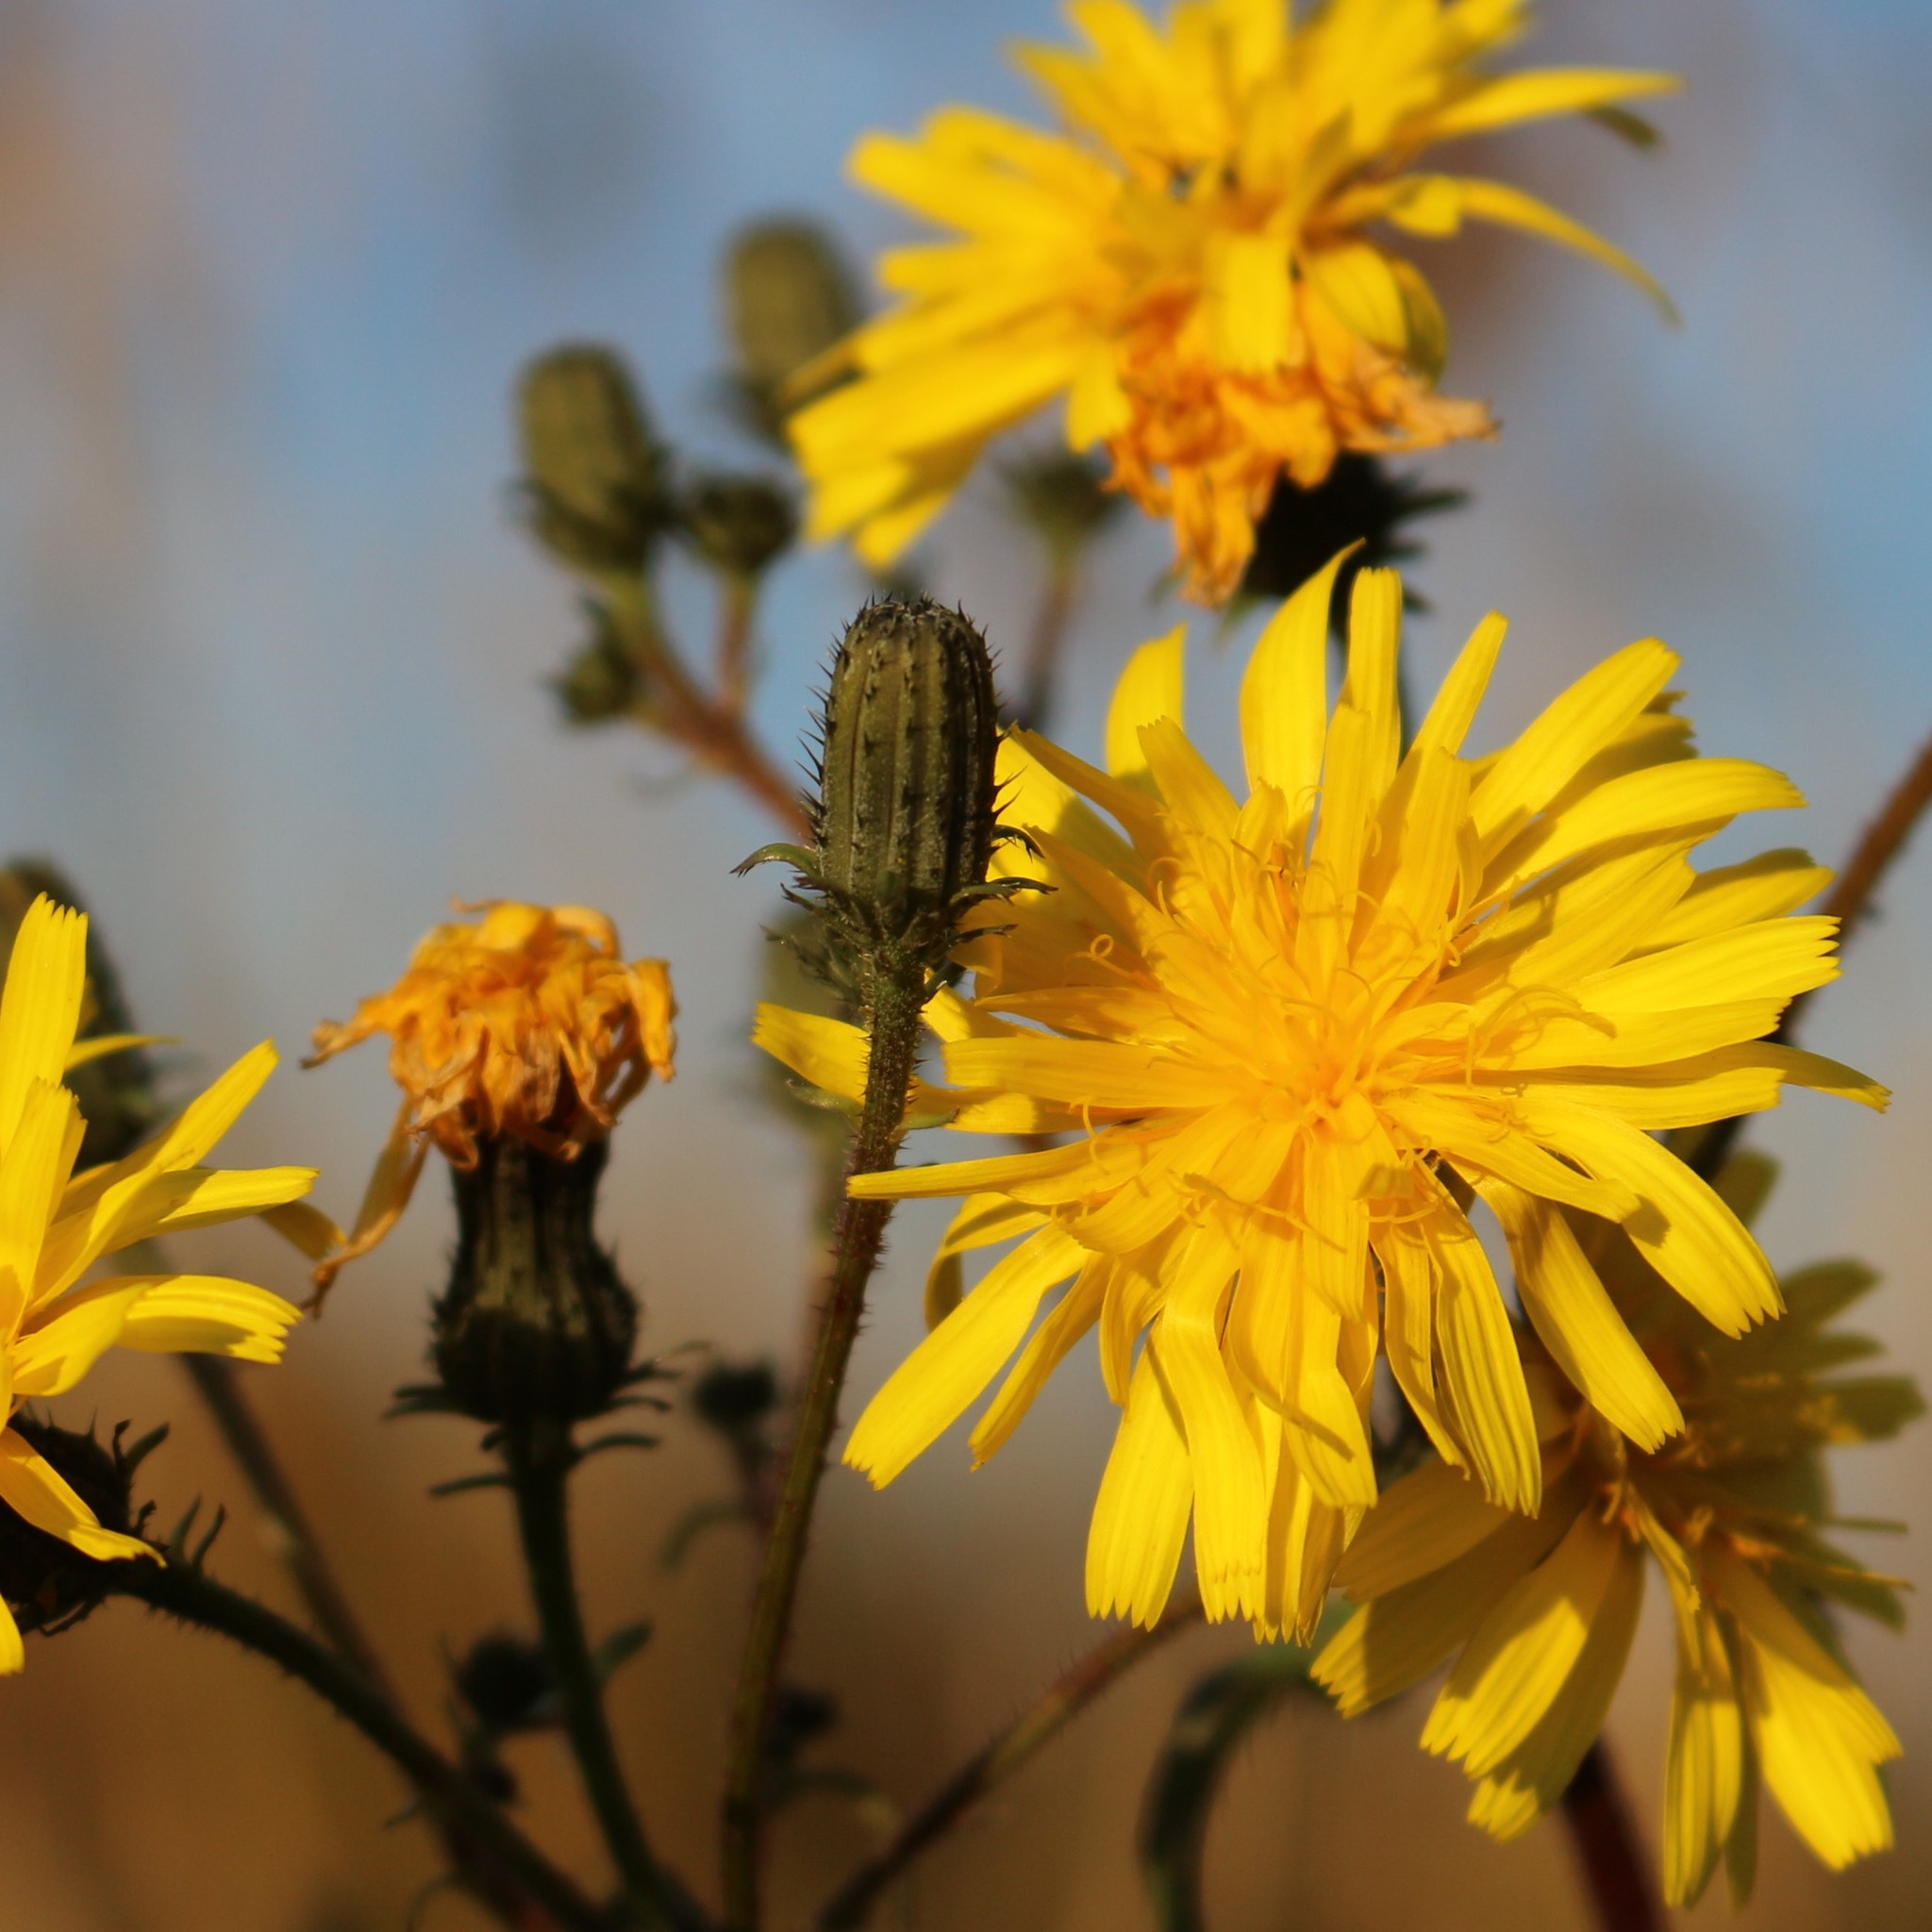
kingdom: Plantae
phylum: Tracheophyta
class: Magnoliopsida
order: Asterales
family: Asteraceae
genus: Picris
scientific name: Picris hieracioides
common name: Hawkweed oxtongue
